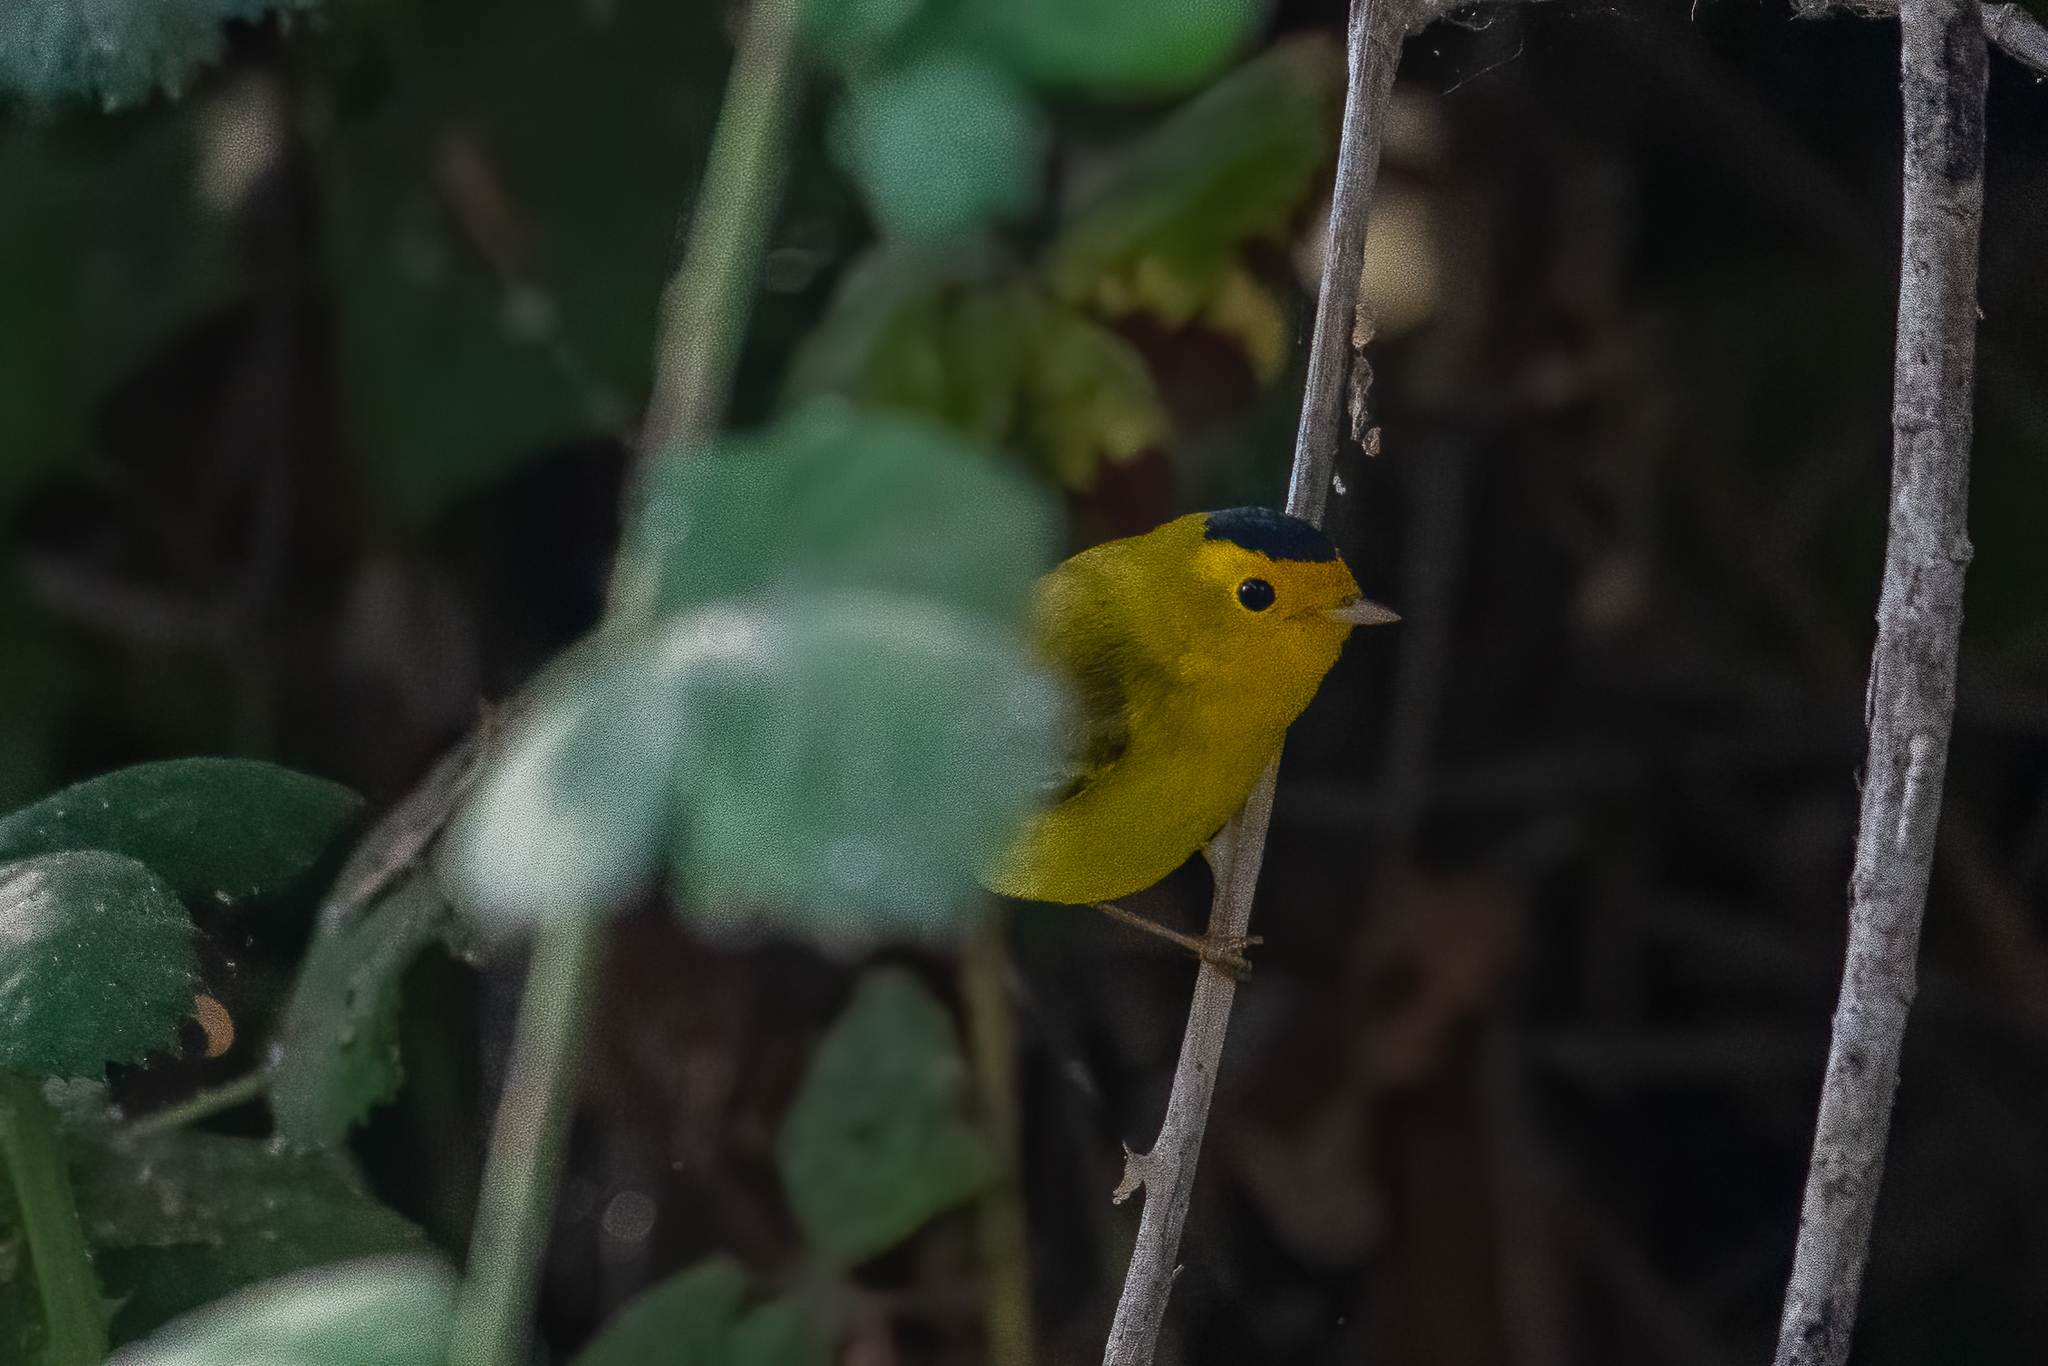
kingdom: Animalia
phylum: Chordata
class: Aves
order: Passeriformes
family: Parulidae
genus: Cardellina
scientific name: Cardellina pusilla
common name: Wilson's warbler
